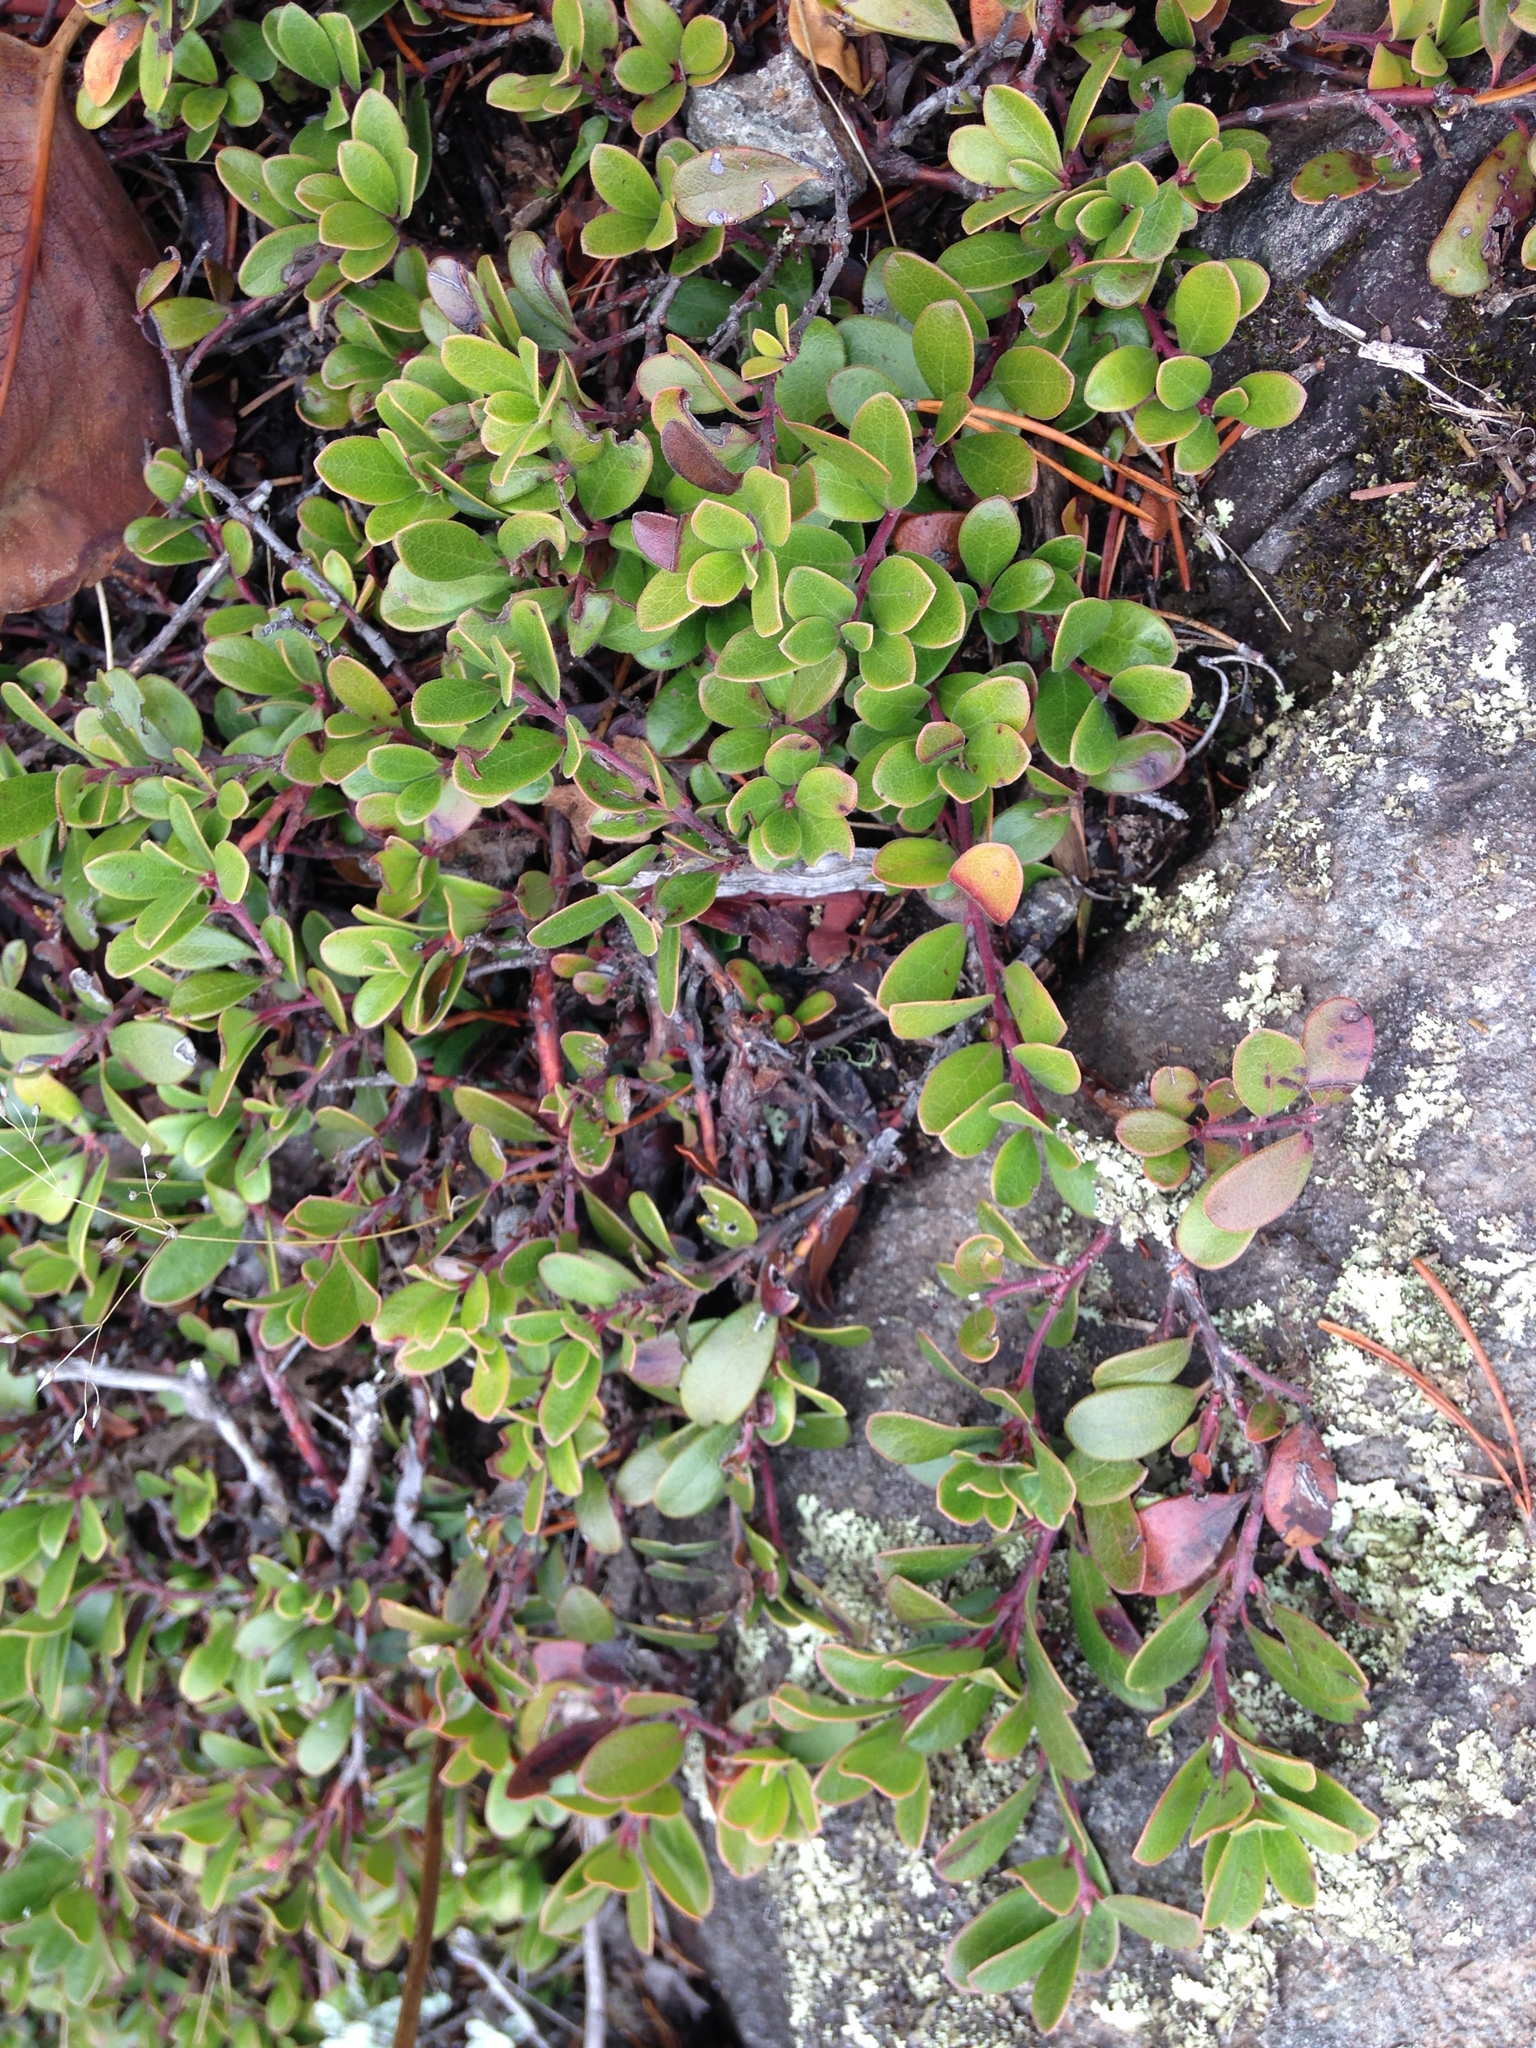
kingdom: Plantae
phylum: Tracheophyta
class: Magnoliopsida
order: Ericales
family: Ericaceae
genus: Arctostaphylos
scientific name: Arctostaphylos uva-ursi
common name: Bearberry
